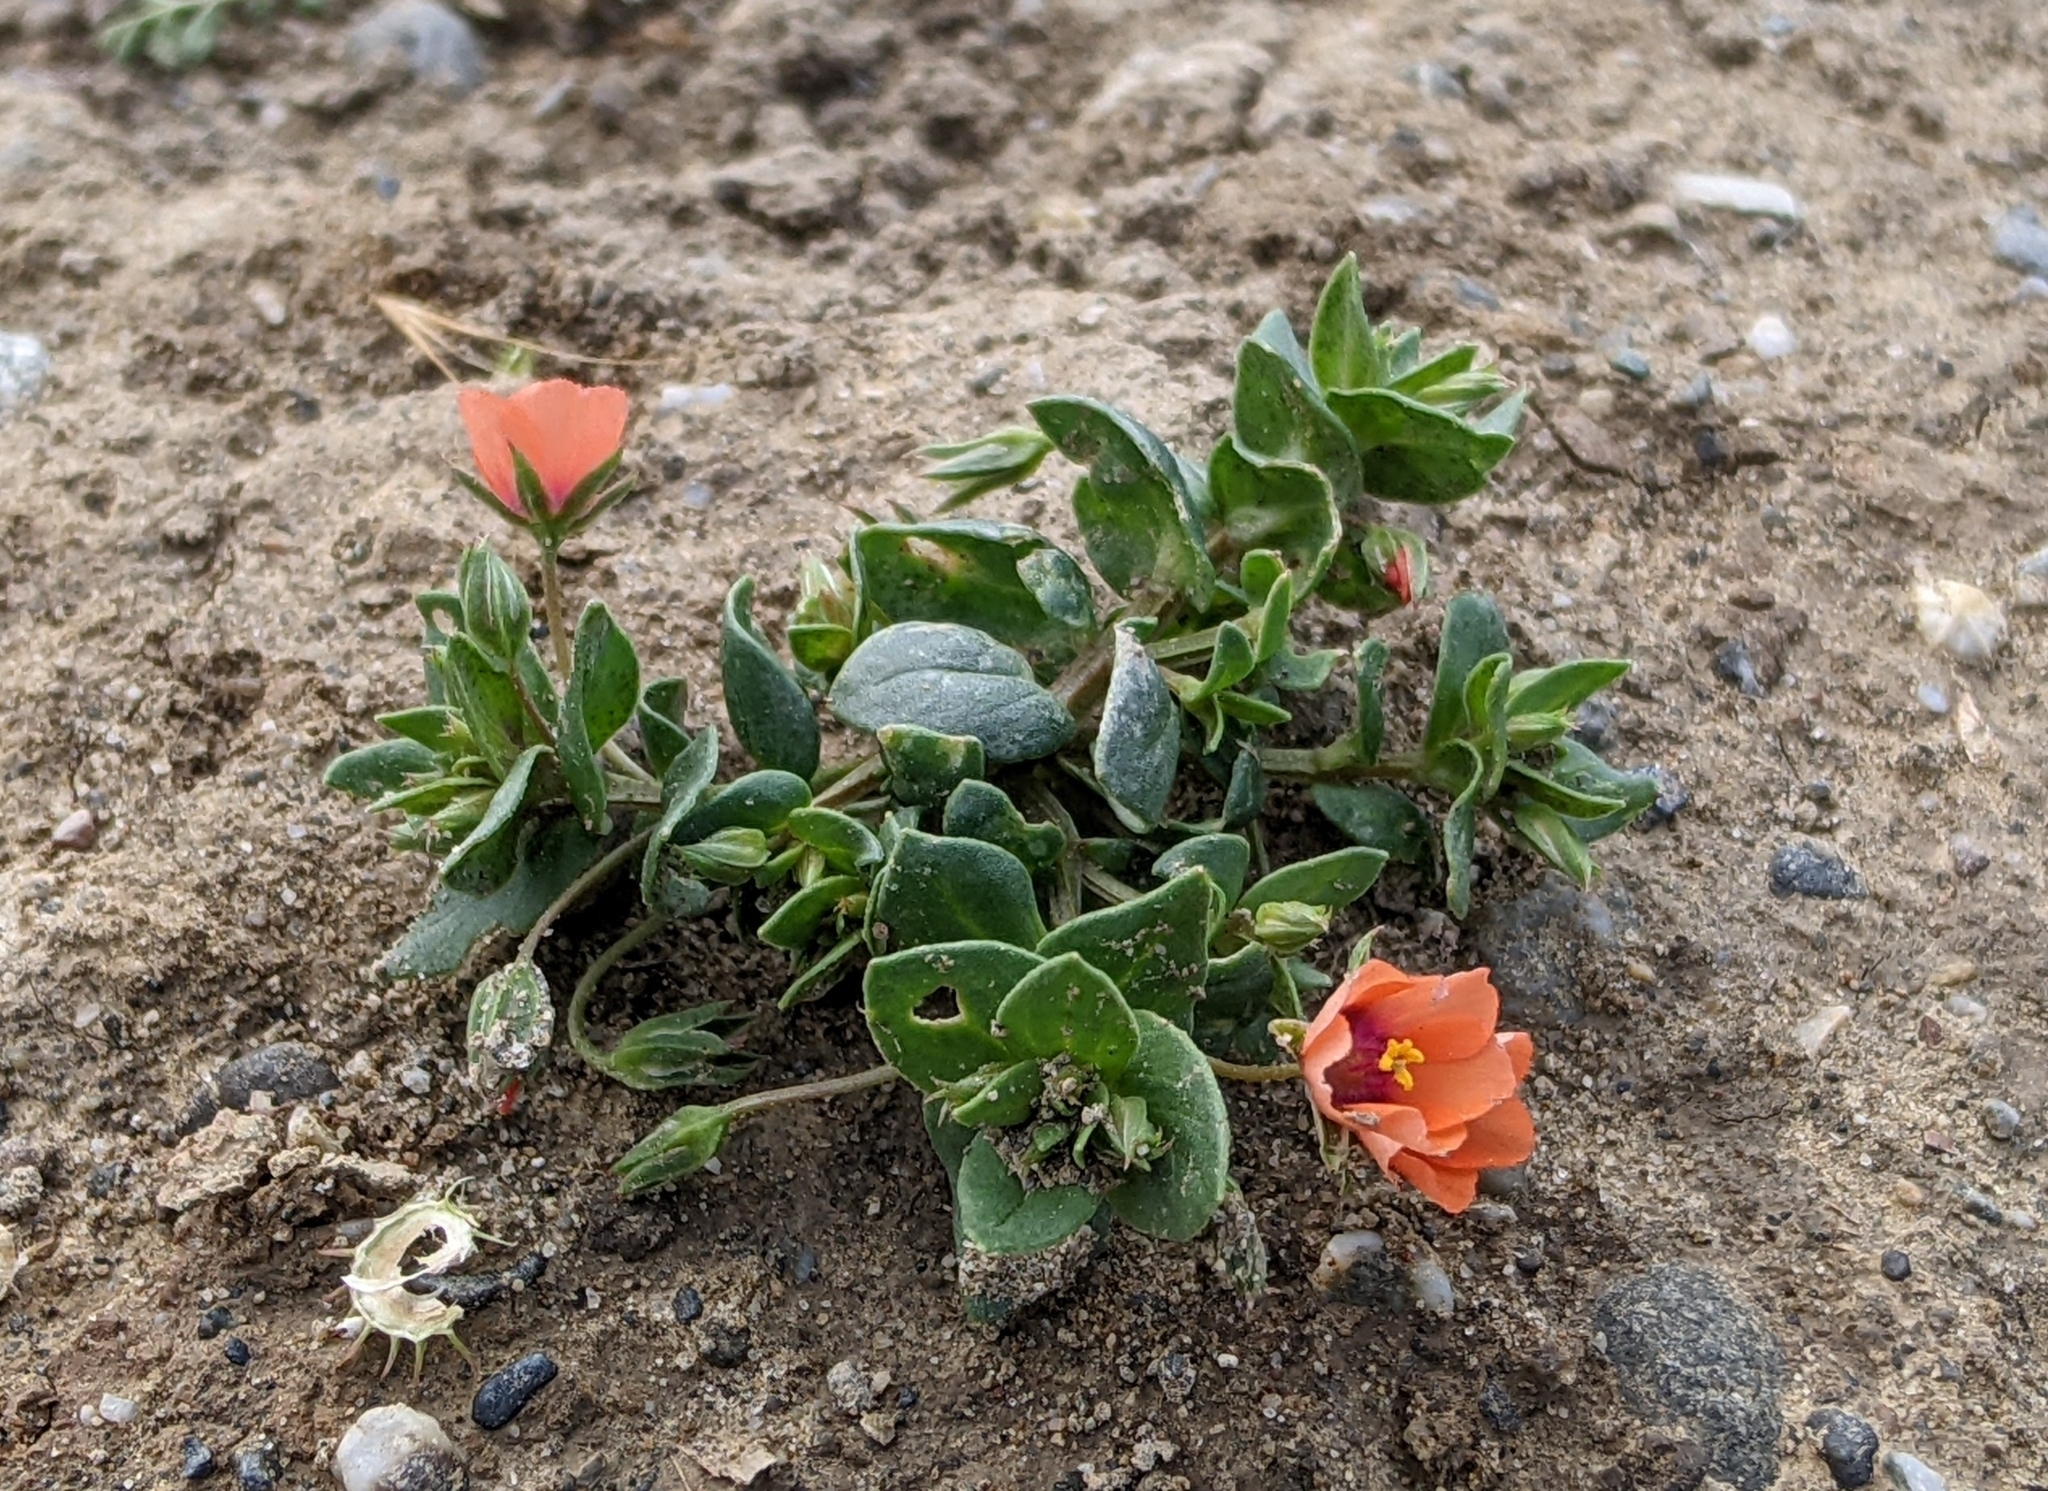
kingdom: Plantae
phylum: Tracheophyta
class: Magnoliopsida
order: Ericales
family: Primulaceae
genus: Lysimachia
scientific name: Lysimachia arvensis
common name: Scarlet pimpernel
